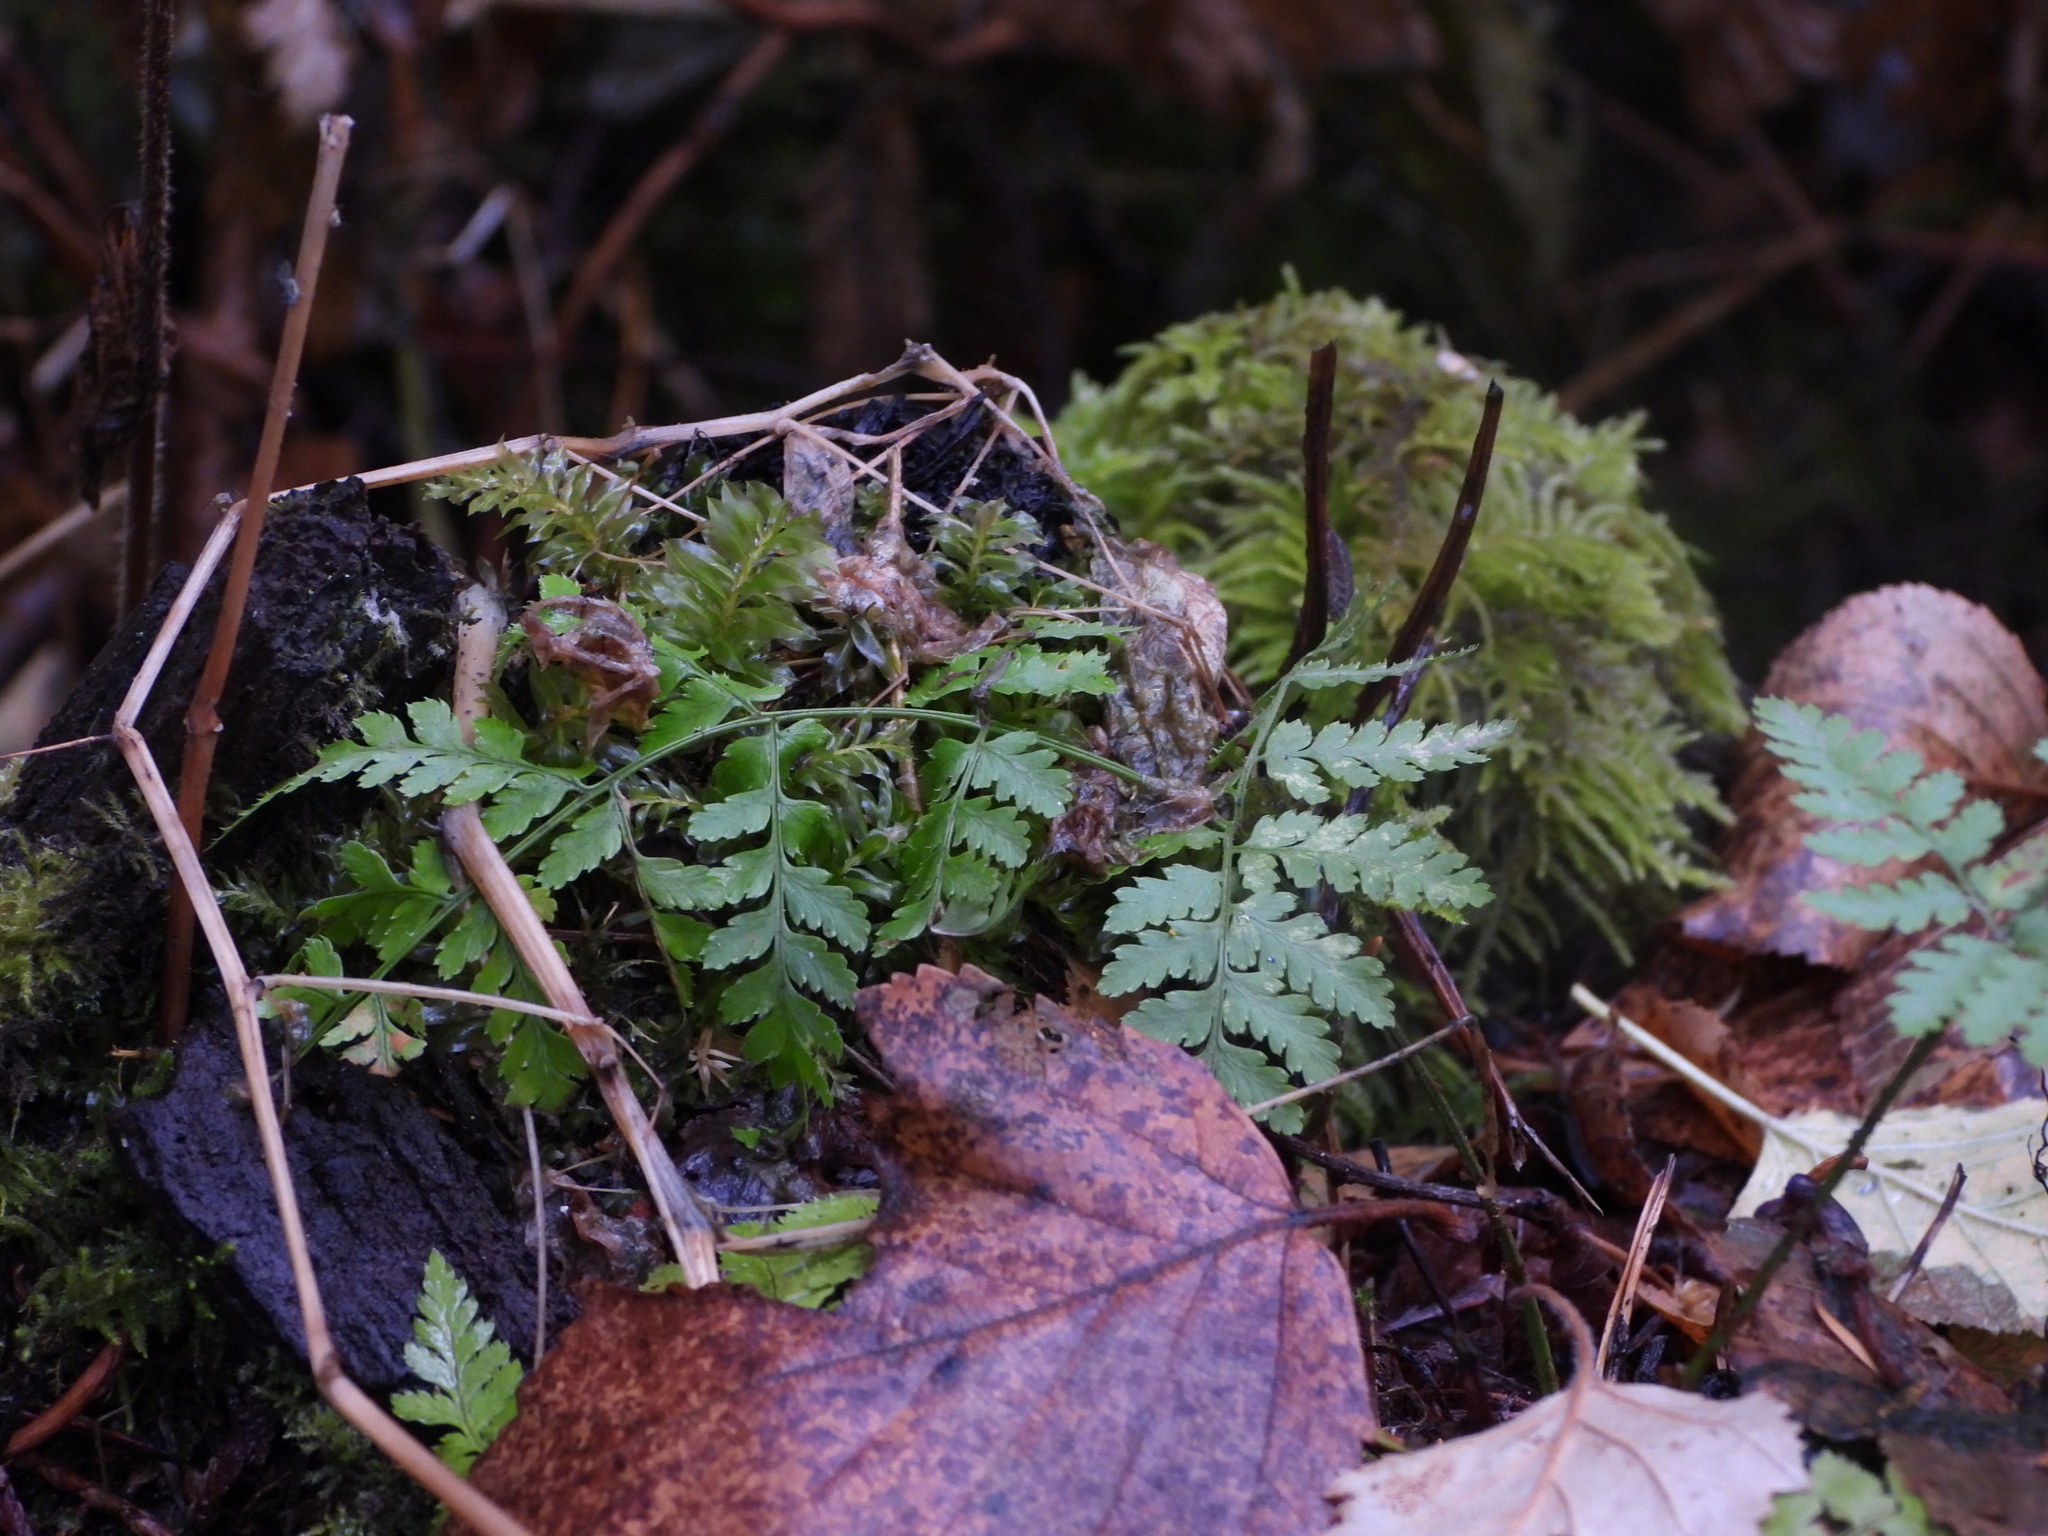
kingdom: Plantae
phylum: Tracheophyta
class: Polypodiopsida
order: Polypodiales
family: Dryopteridaceae
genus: Dryopteris
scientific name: Dryopteris expansa
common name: Northern buckler fern
